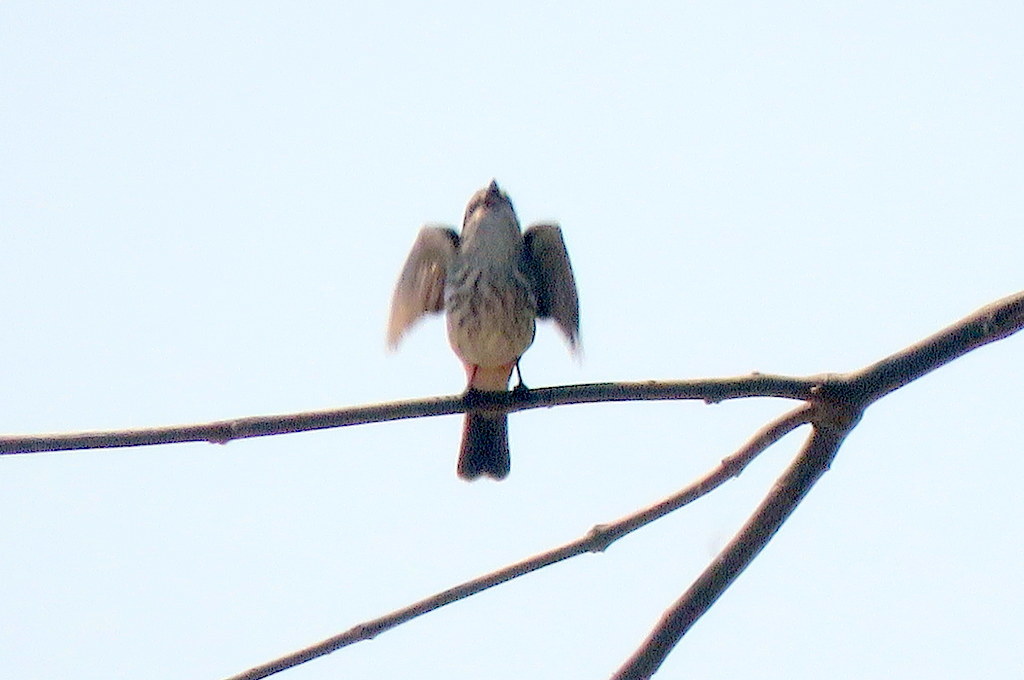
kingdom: Animalia
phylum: Chordata
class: Aves
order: Passeriformes
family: Tyrannidae
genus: Pyrocephalus
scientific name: Pyrocephalus rubinus
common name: Vermilion flycatcher
